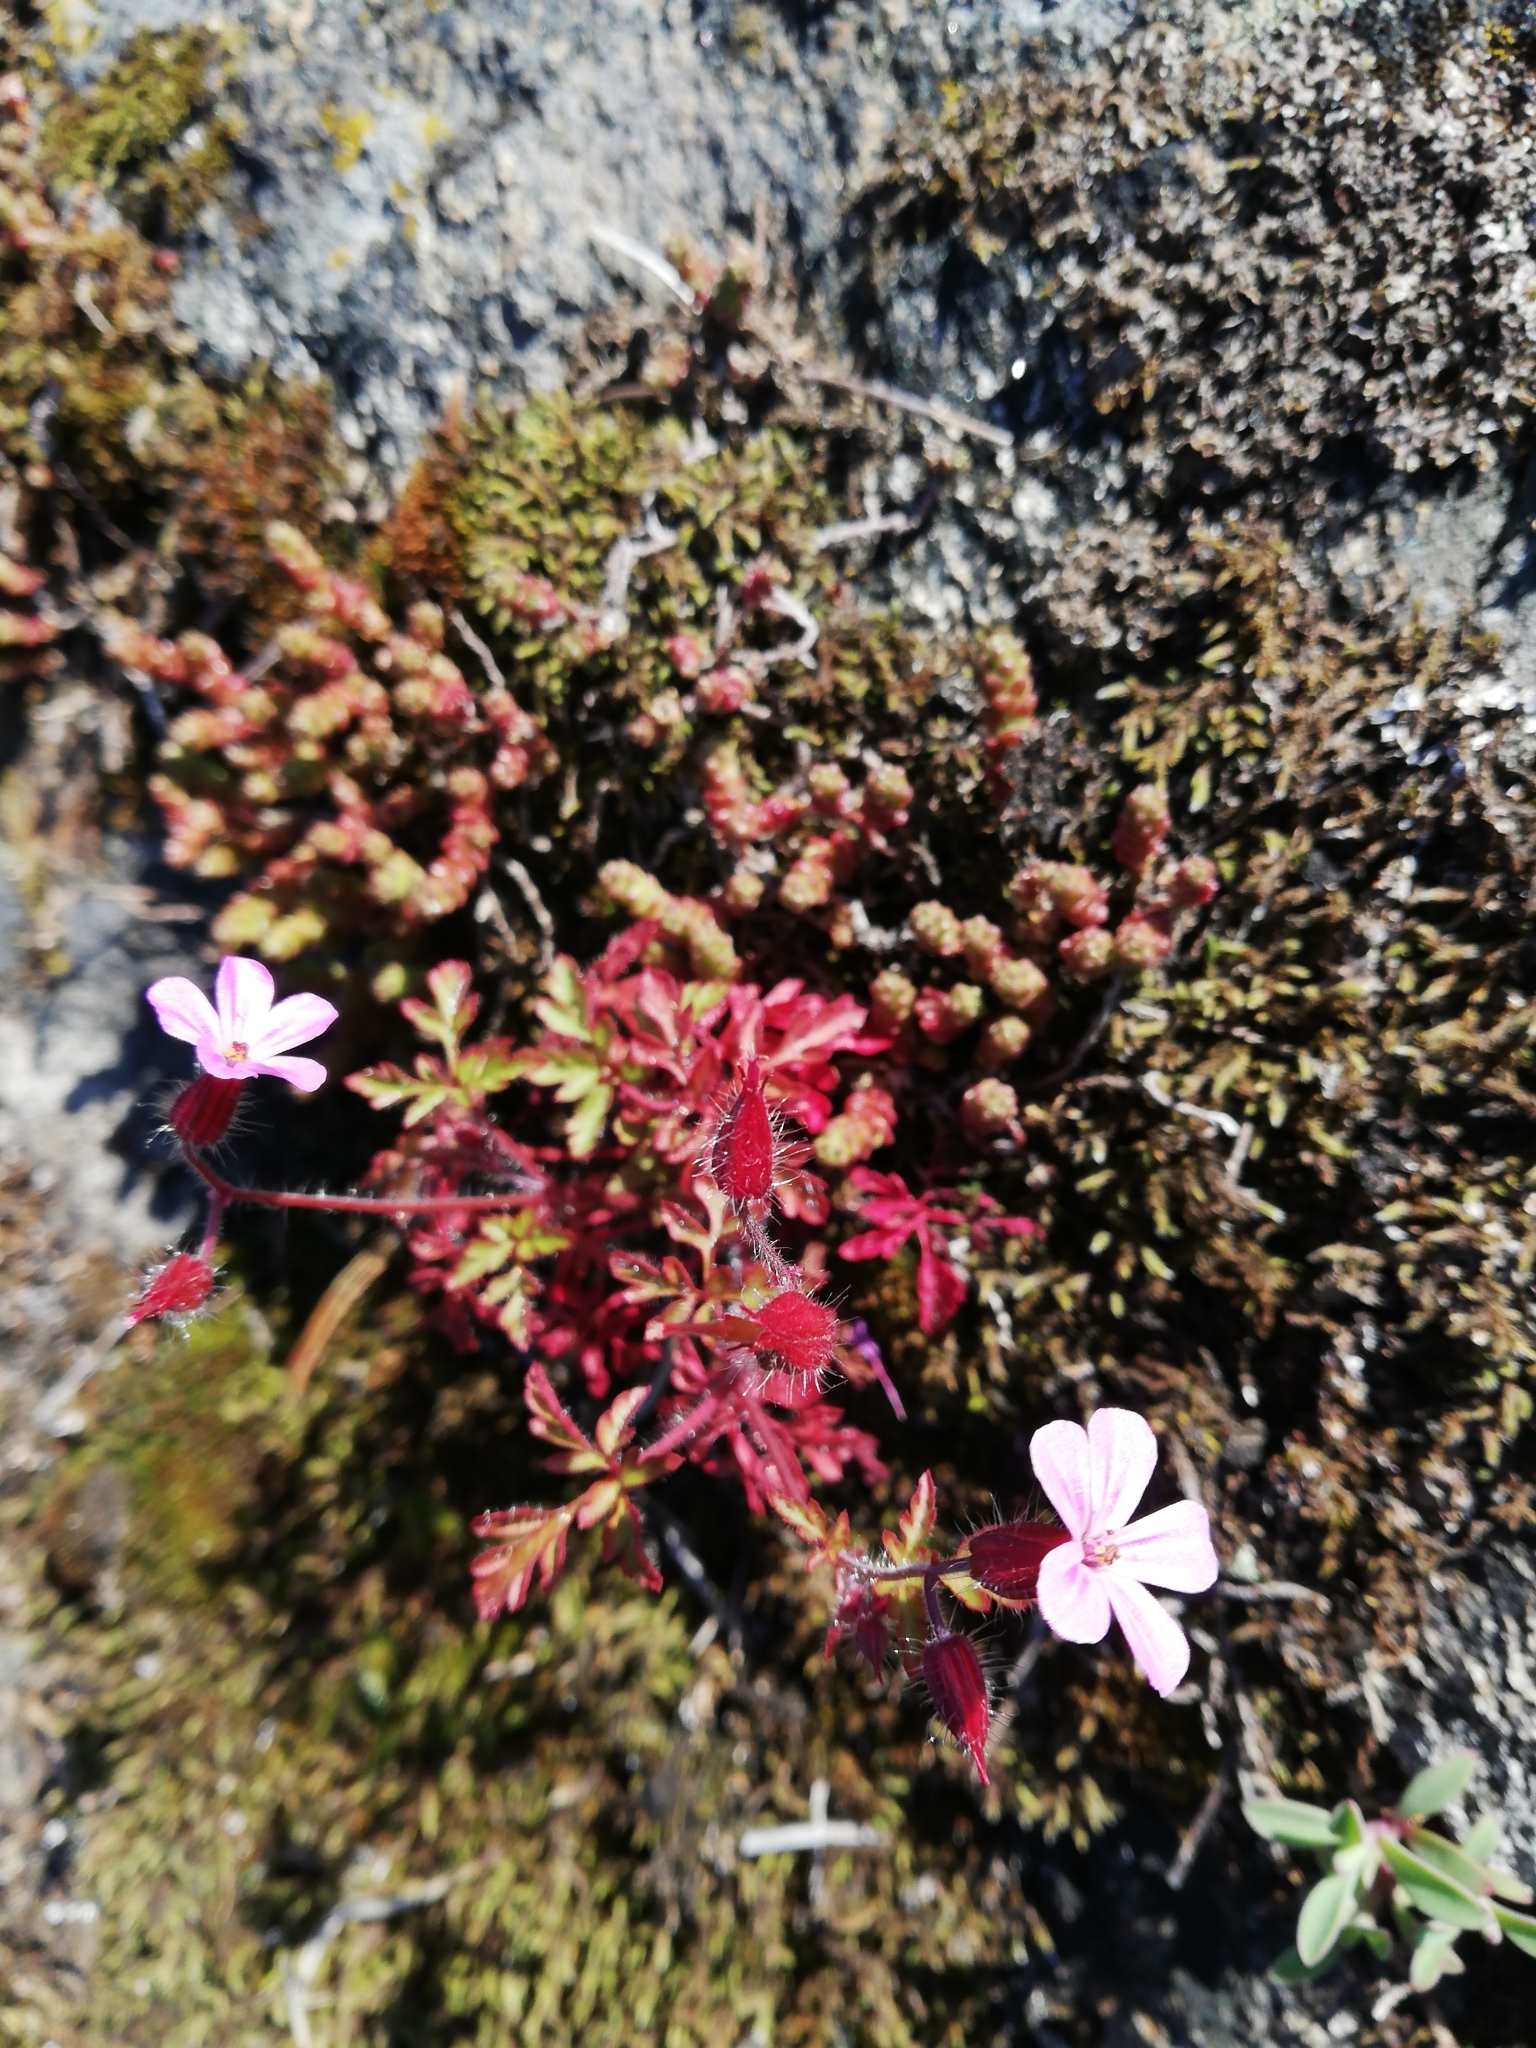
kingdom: Plantae
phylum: Tracheophyta
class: Magnoliopsida
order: Geraniales
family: Geraniaceae
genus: Geranium
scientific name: Geranium robertianum
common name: Herb-robert
